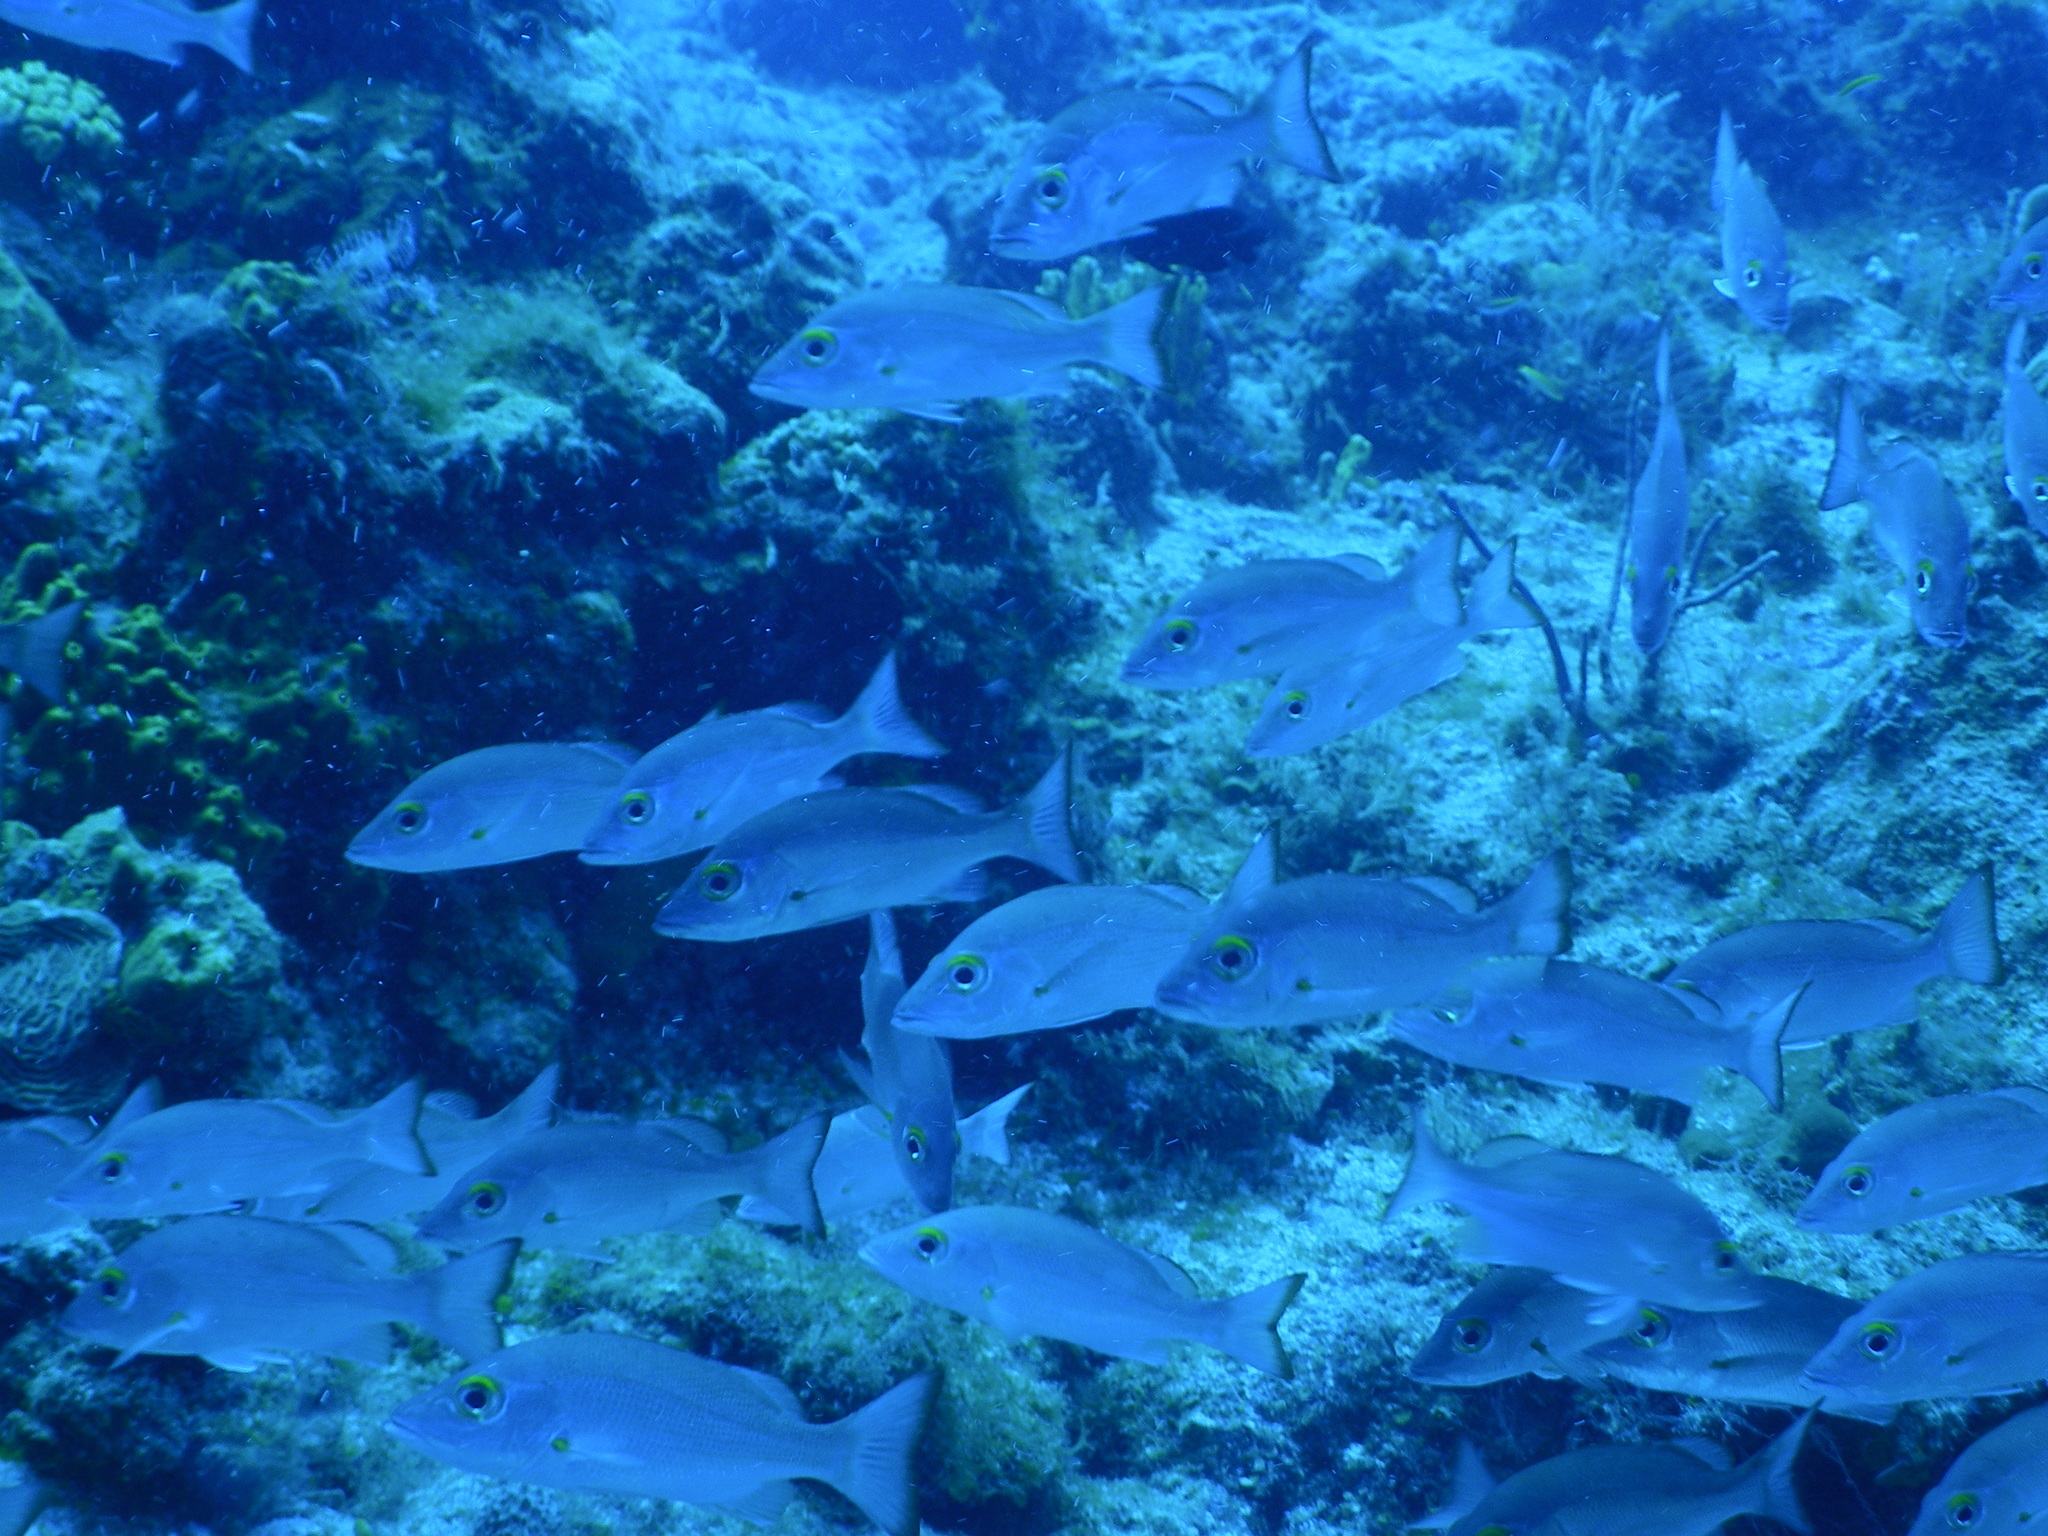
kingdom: Animalia
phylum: Chordata
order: Perciformes
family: Lutjanidae
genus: Lutjanus
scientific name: Lutjanus mahogoni
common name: Spot snapper
